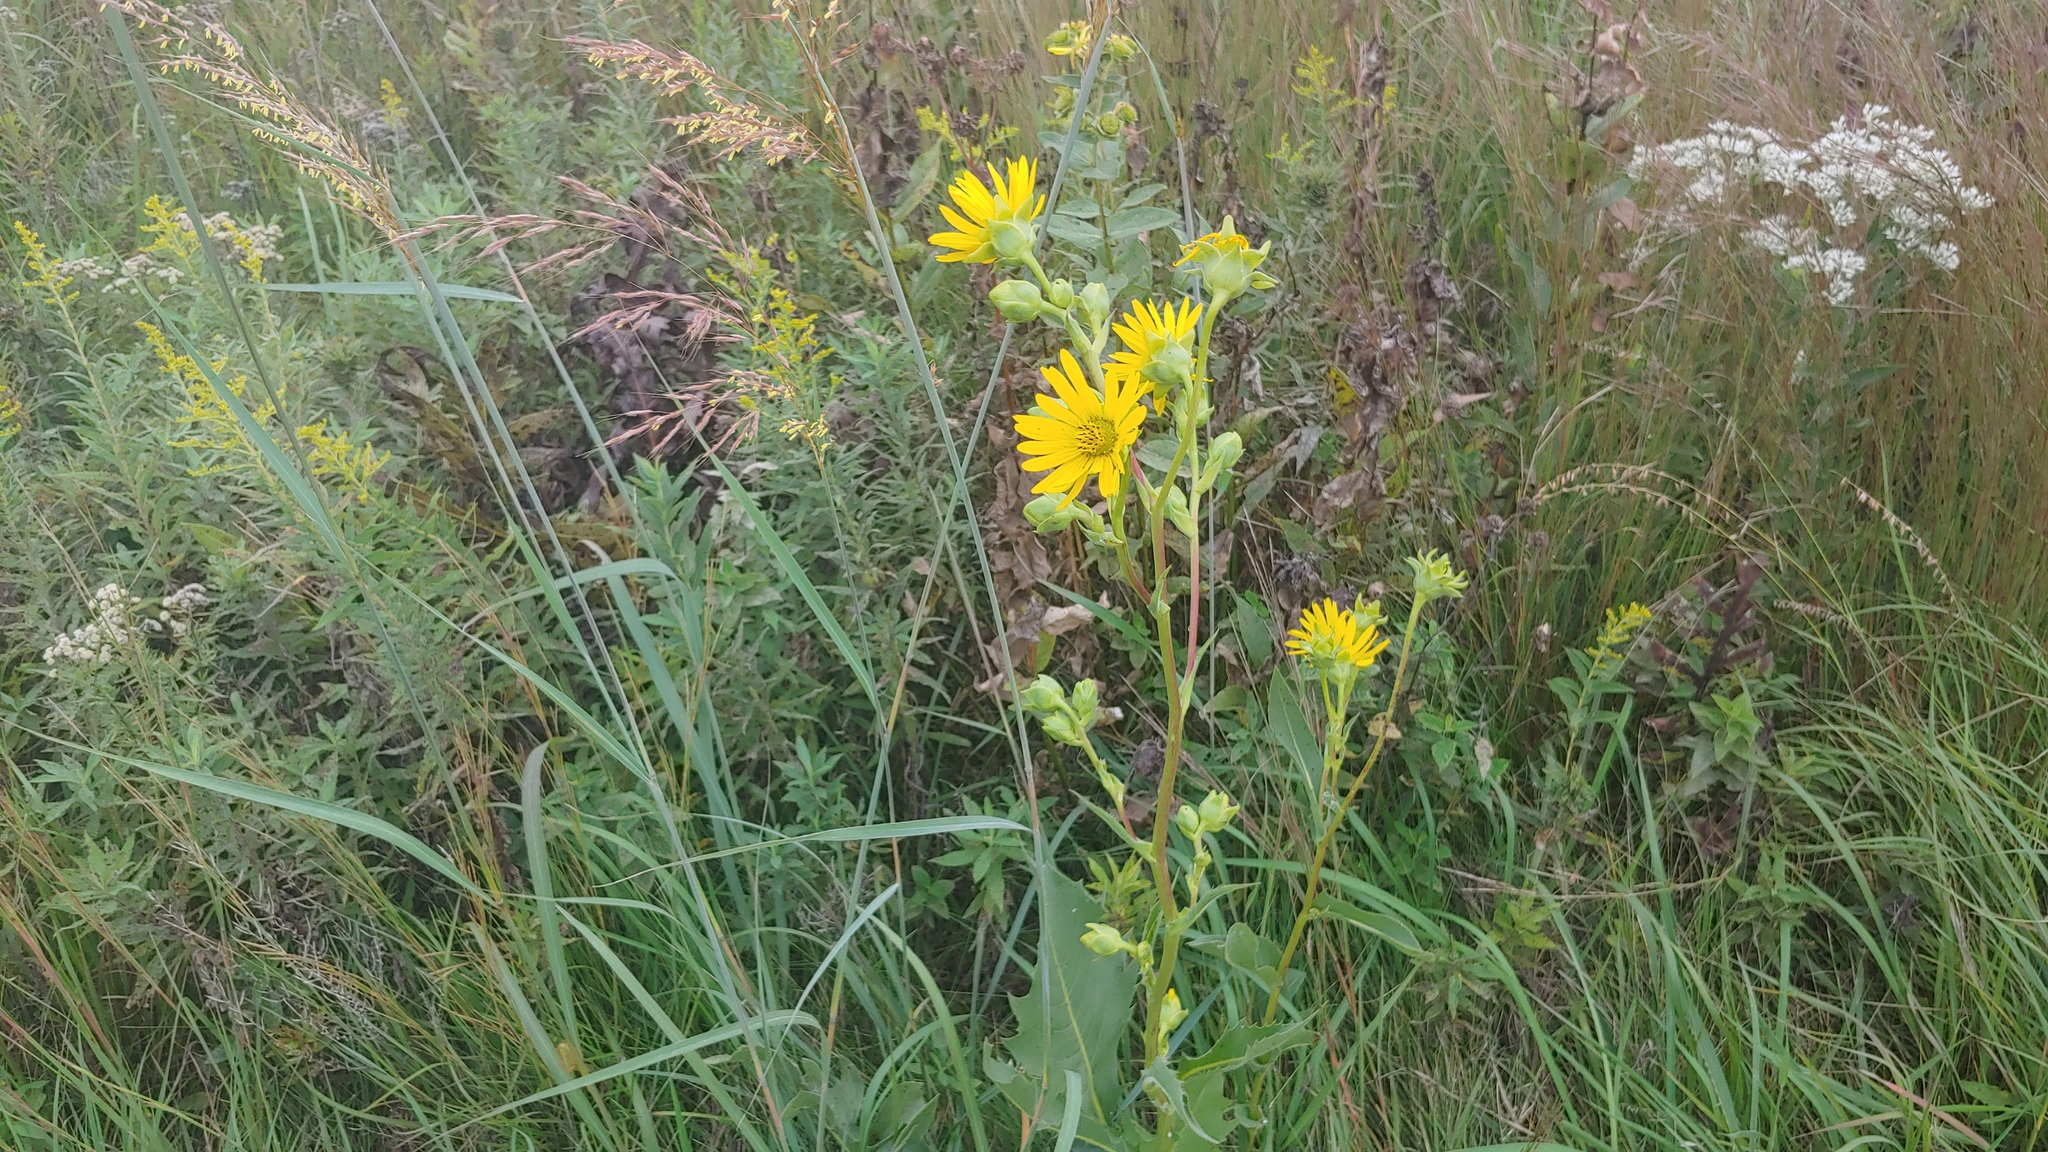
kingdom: Plantae
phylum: Tracheophyta
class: Magnoliopsida
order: Asterales
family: Asteraceae
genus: Silphium
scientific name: Silphium
